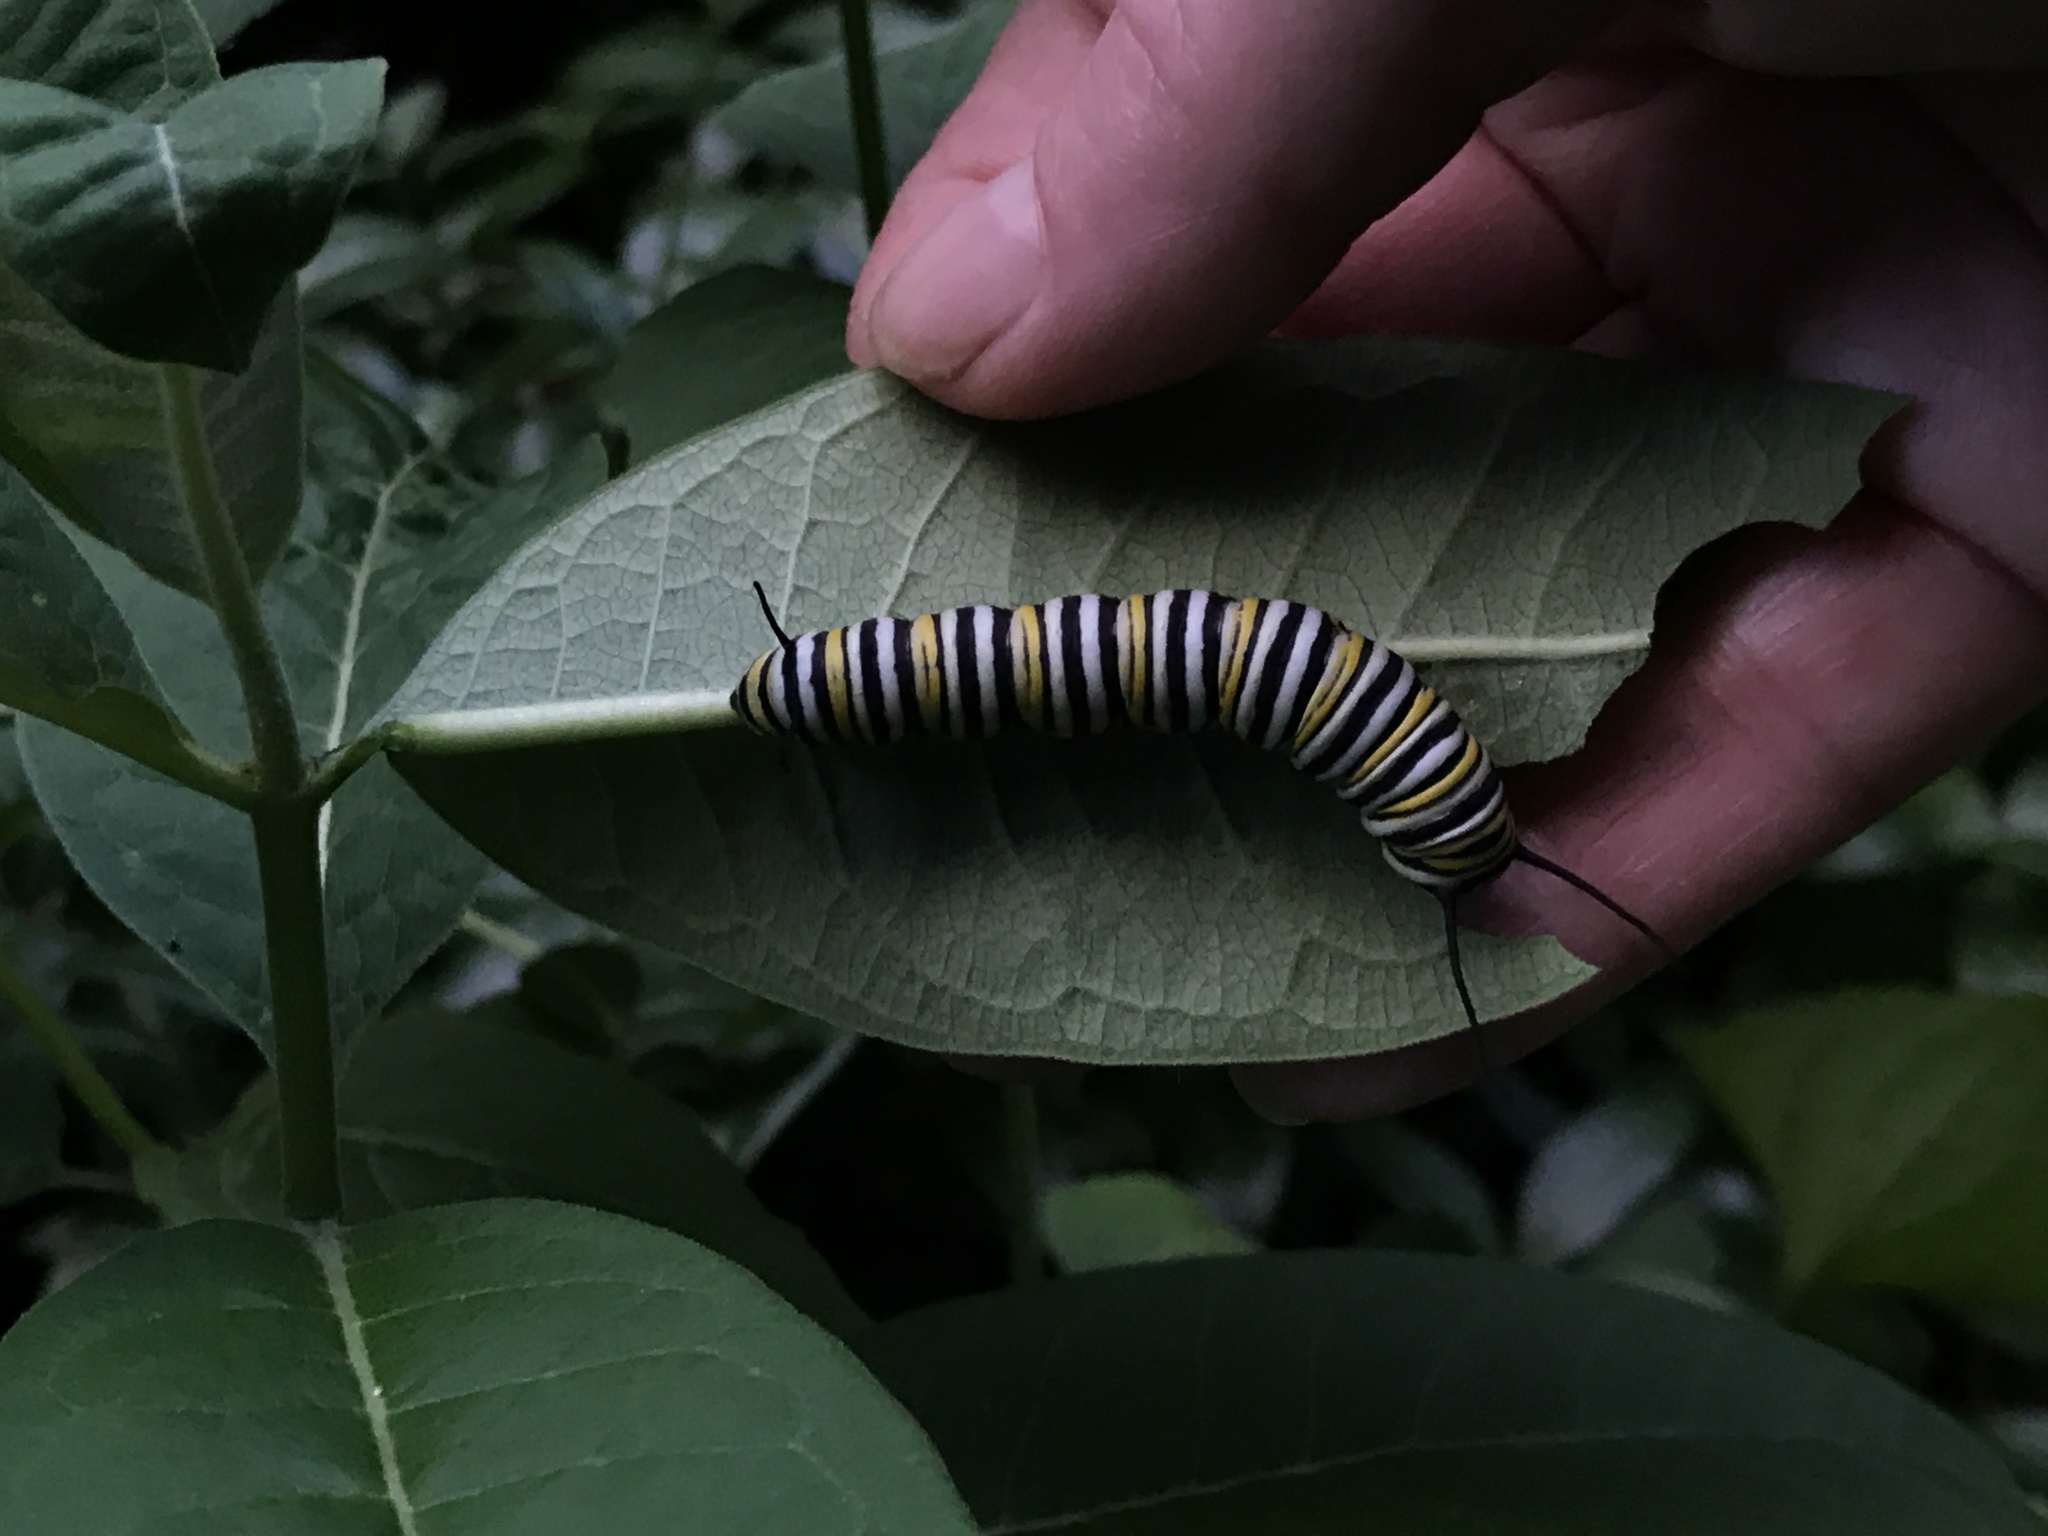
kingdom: Animalia
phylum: Arthropoda
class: Insecta
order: Lepidoptera
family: Nymphalidae
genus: Danaus
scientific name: Danaus plexippus
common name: Monarch
